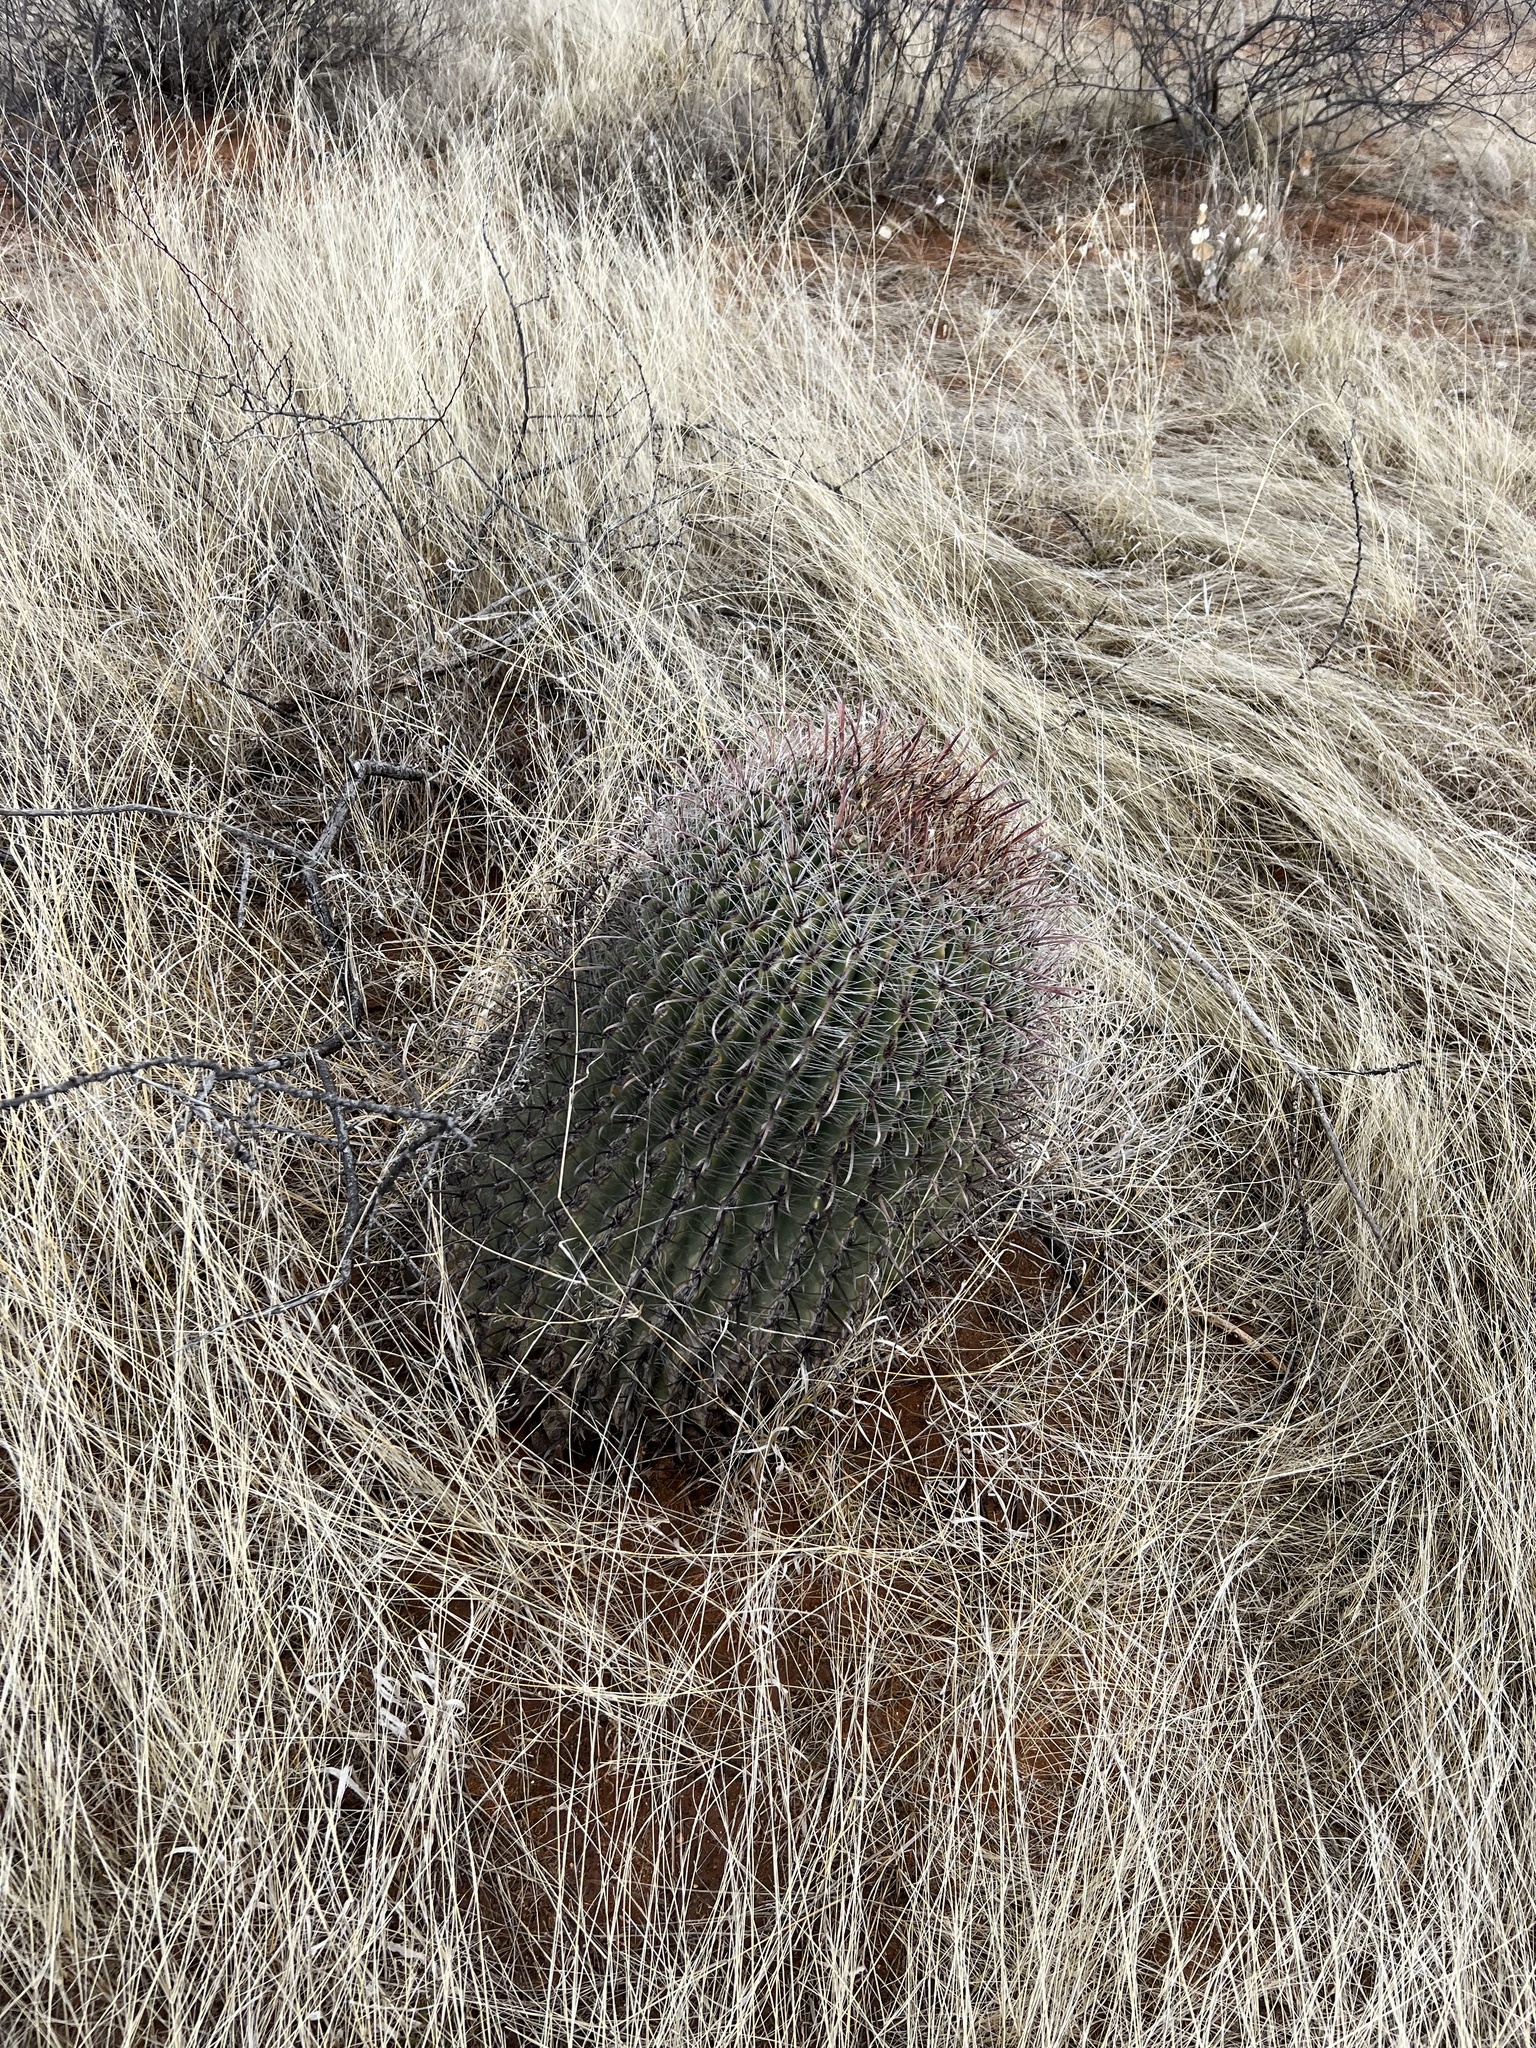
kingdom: Plantae
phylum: Tracheophyta
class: Magnoliopsida
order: Caryophyllales
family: Cactaceae
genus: Ferocactus
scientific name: Ferocactus wislizeni
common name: Candy barrel cactus
